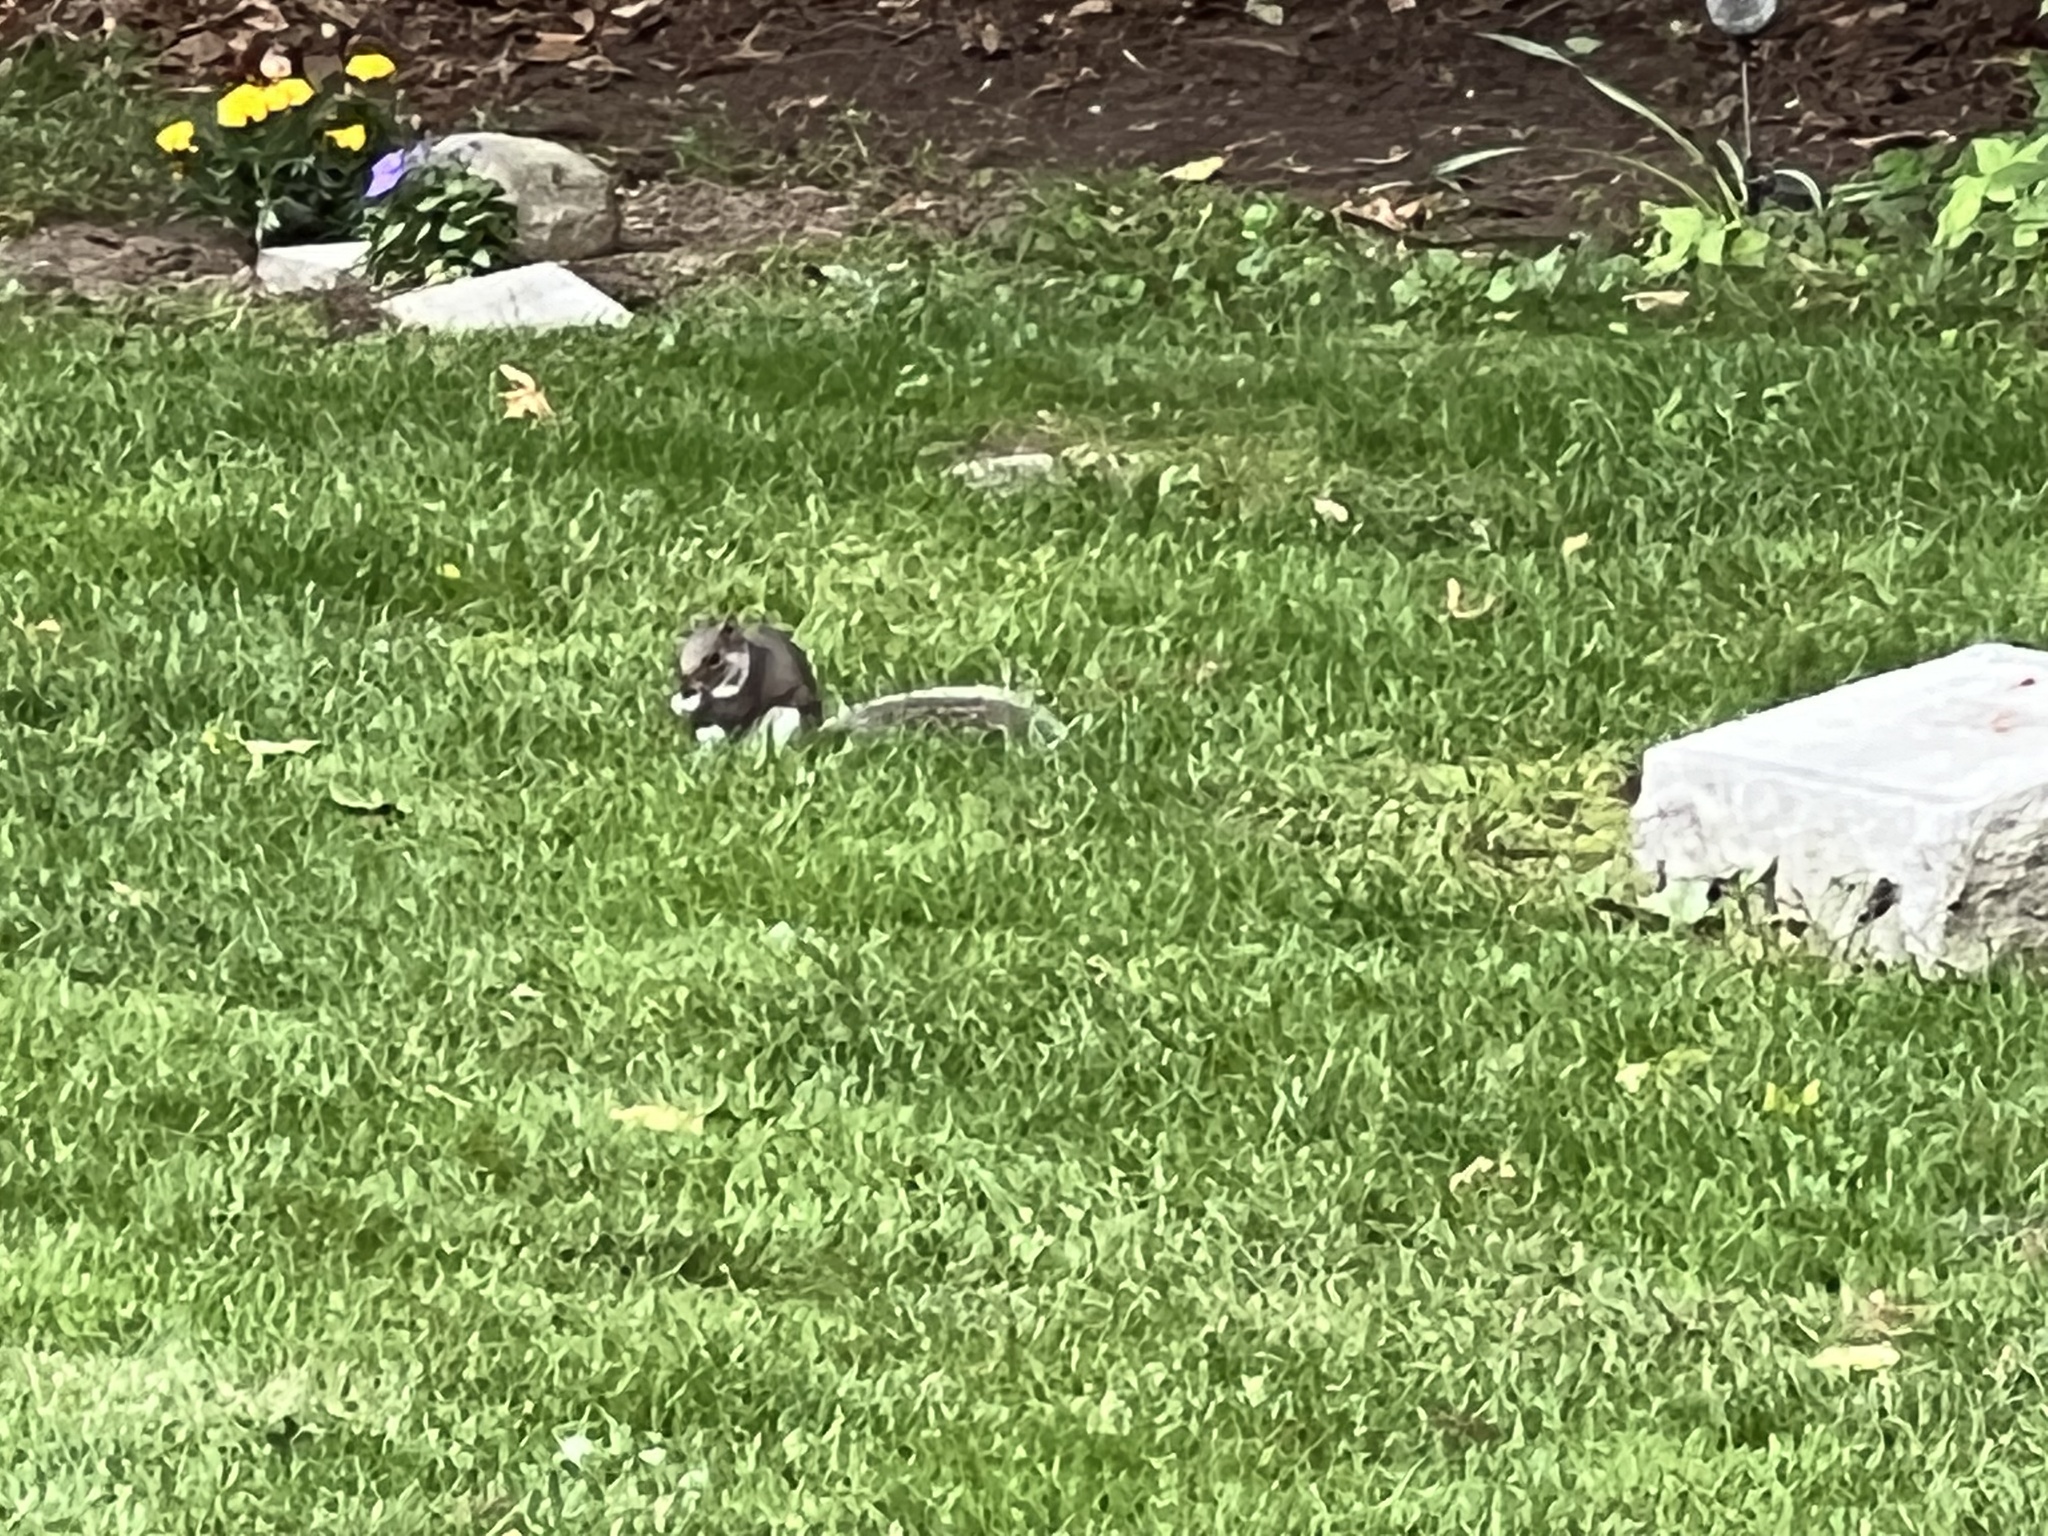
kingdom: Animalia
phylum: Chordata
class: Mammalia
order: Rodentia
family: Sciuridae
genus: Sciurus
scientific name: Sciurus carolinensis
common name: Eastern gray squirrel
